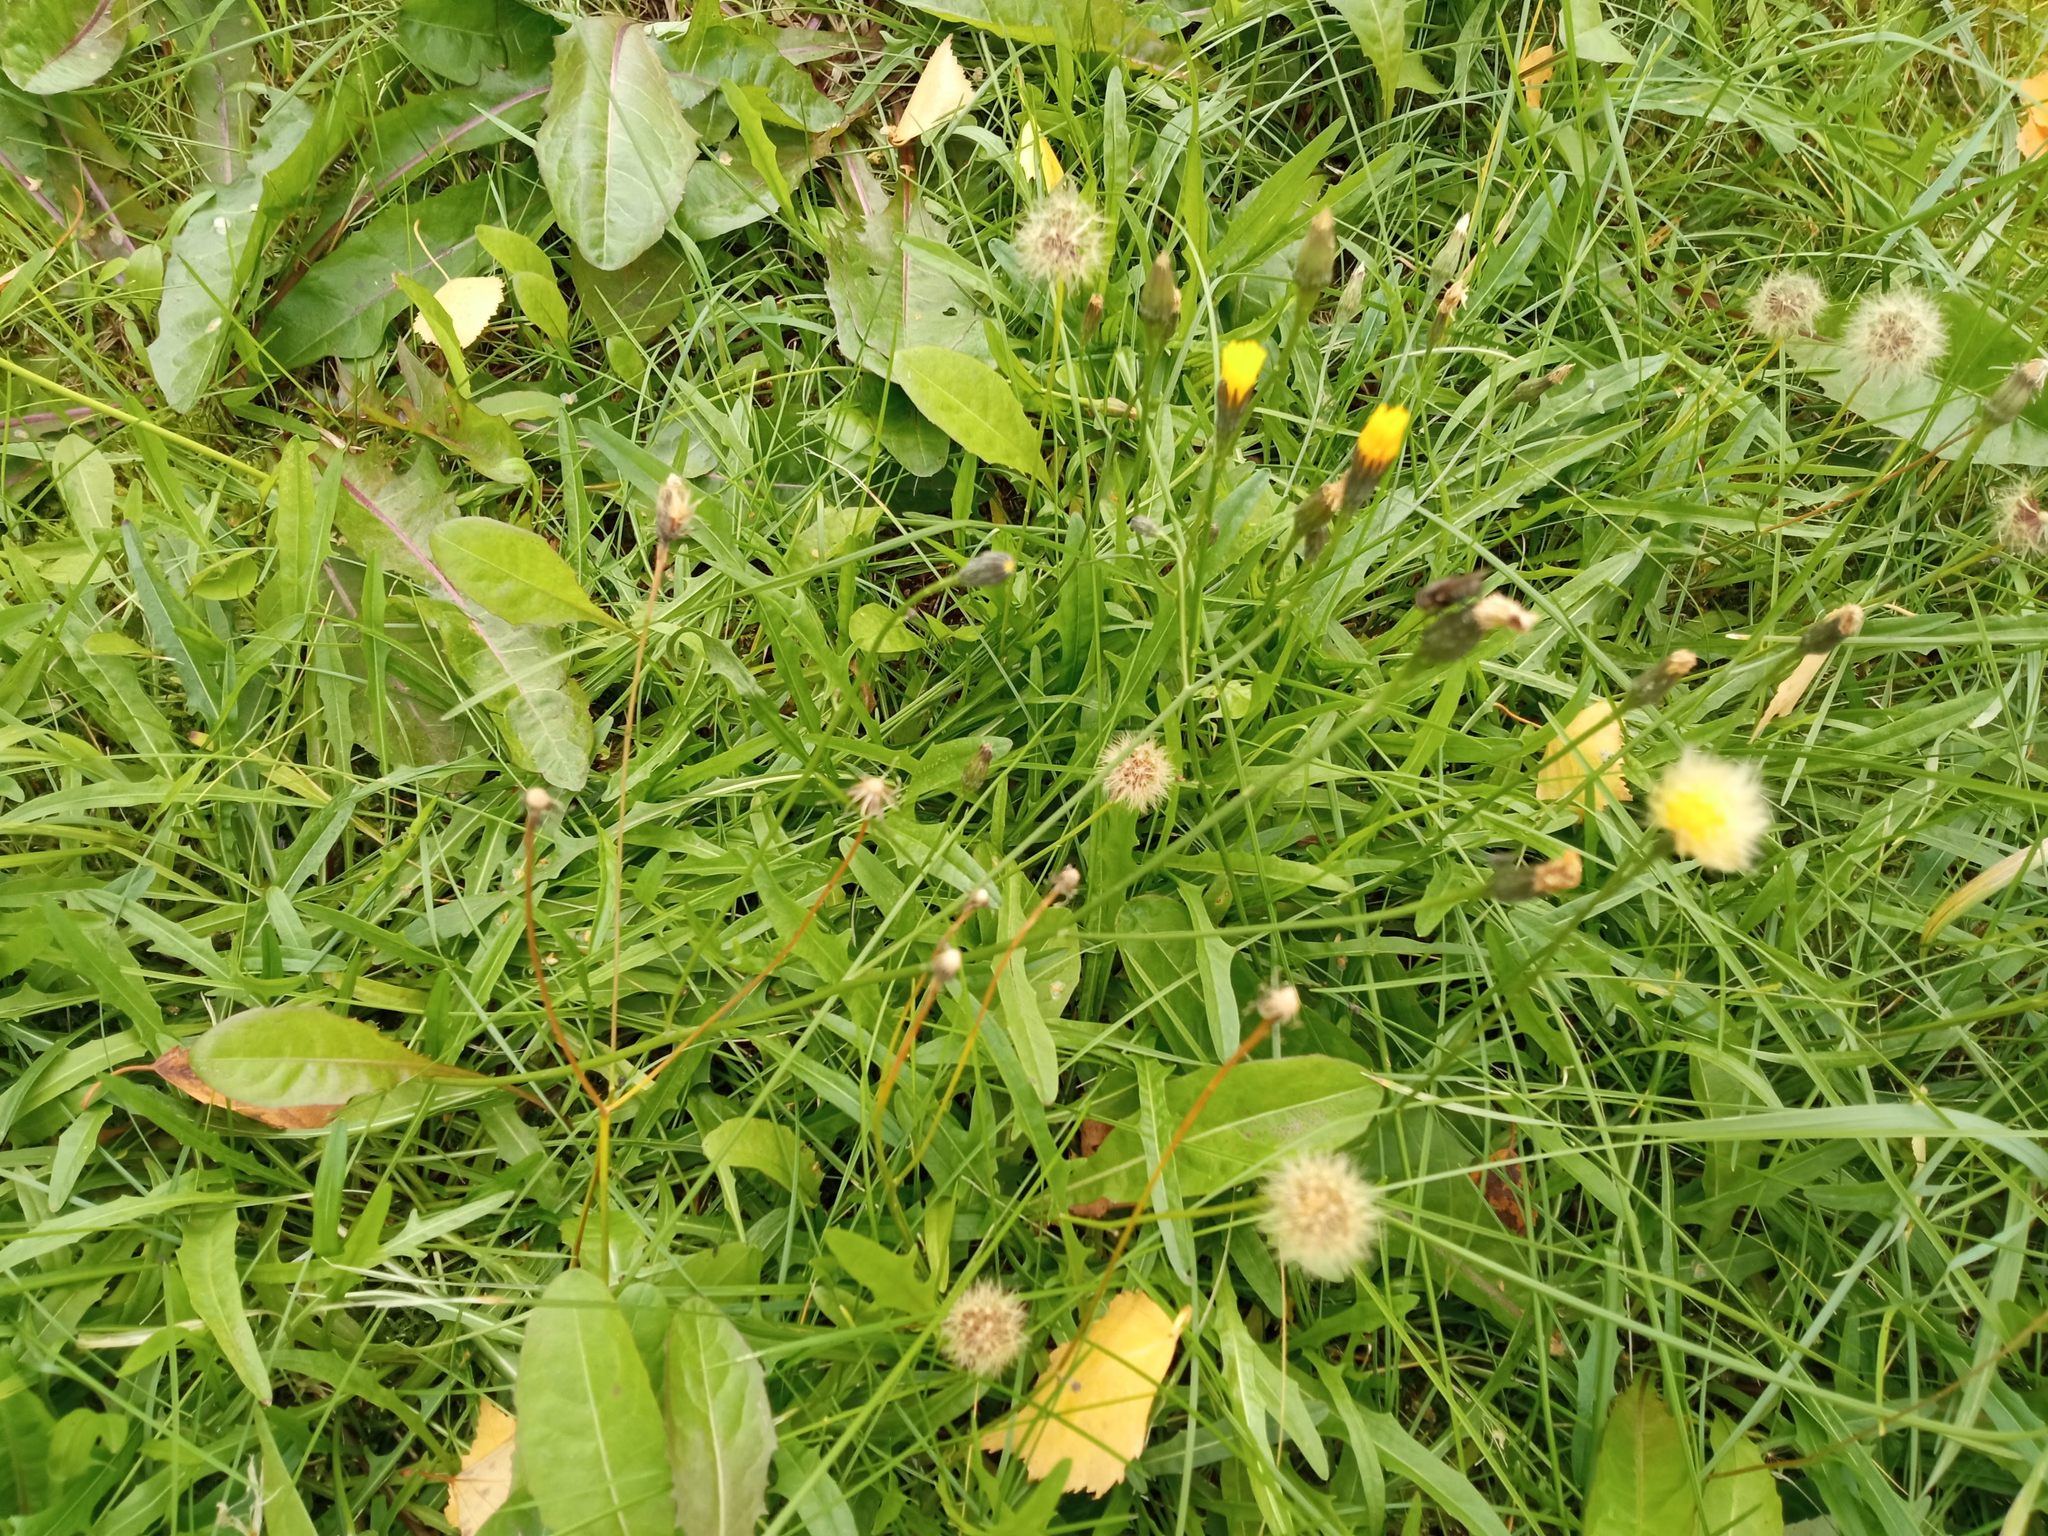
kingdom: Plantae
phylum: Tracheophyta
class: Magnoliopsida
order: Asterales
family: Asteraceae
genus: Scorzoneroides
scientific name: Scorzoneroides autumnalis
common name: Autumn hawkbit
